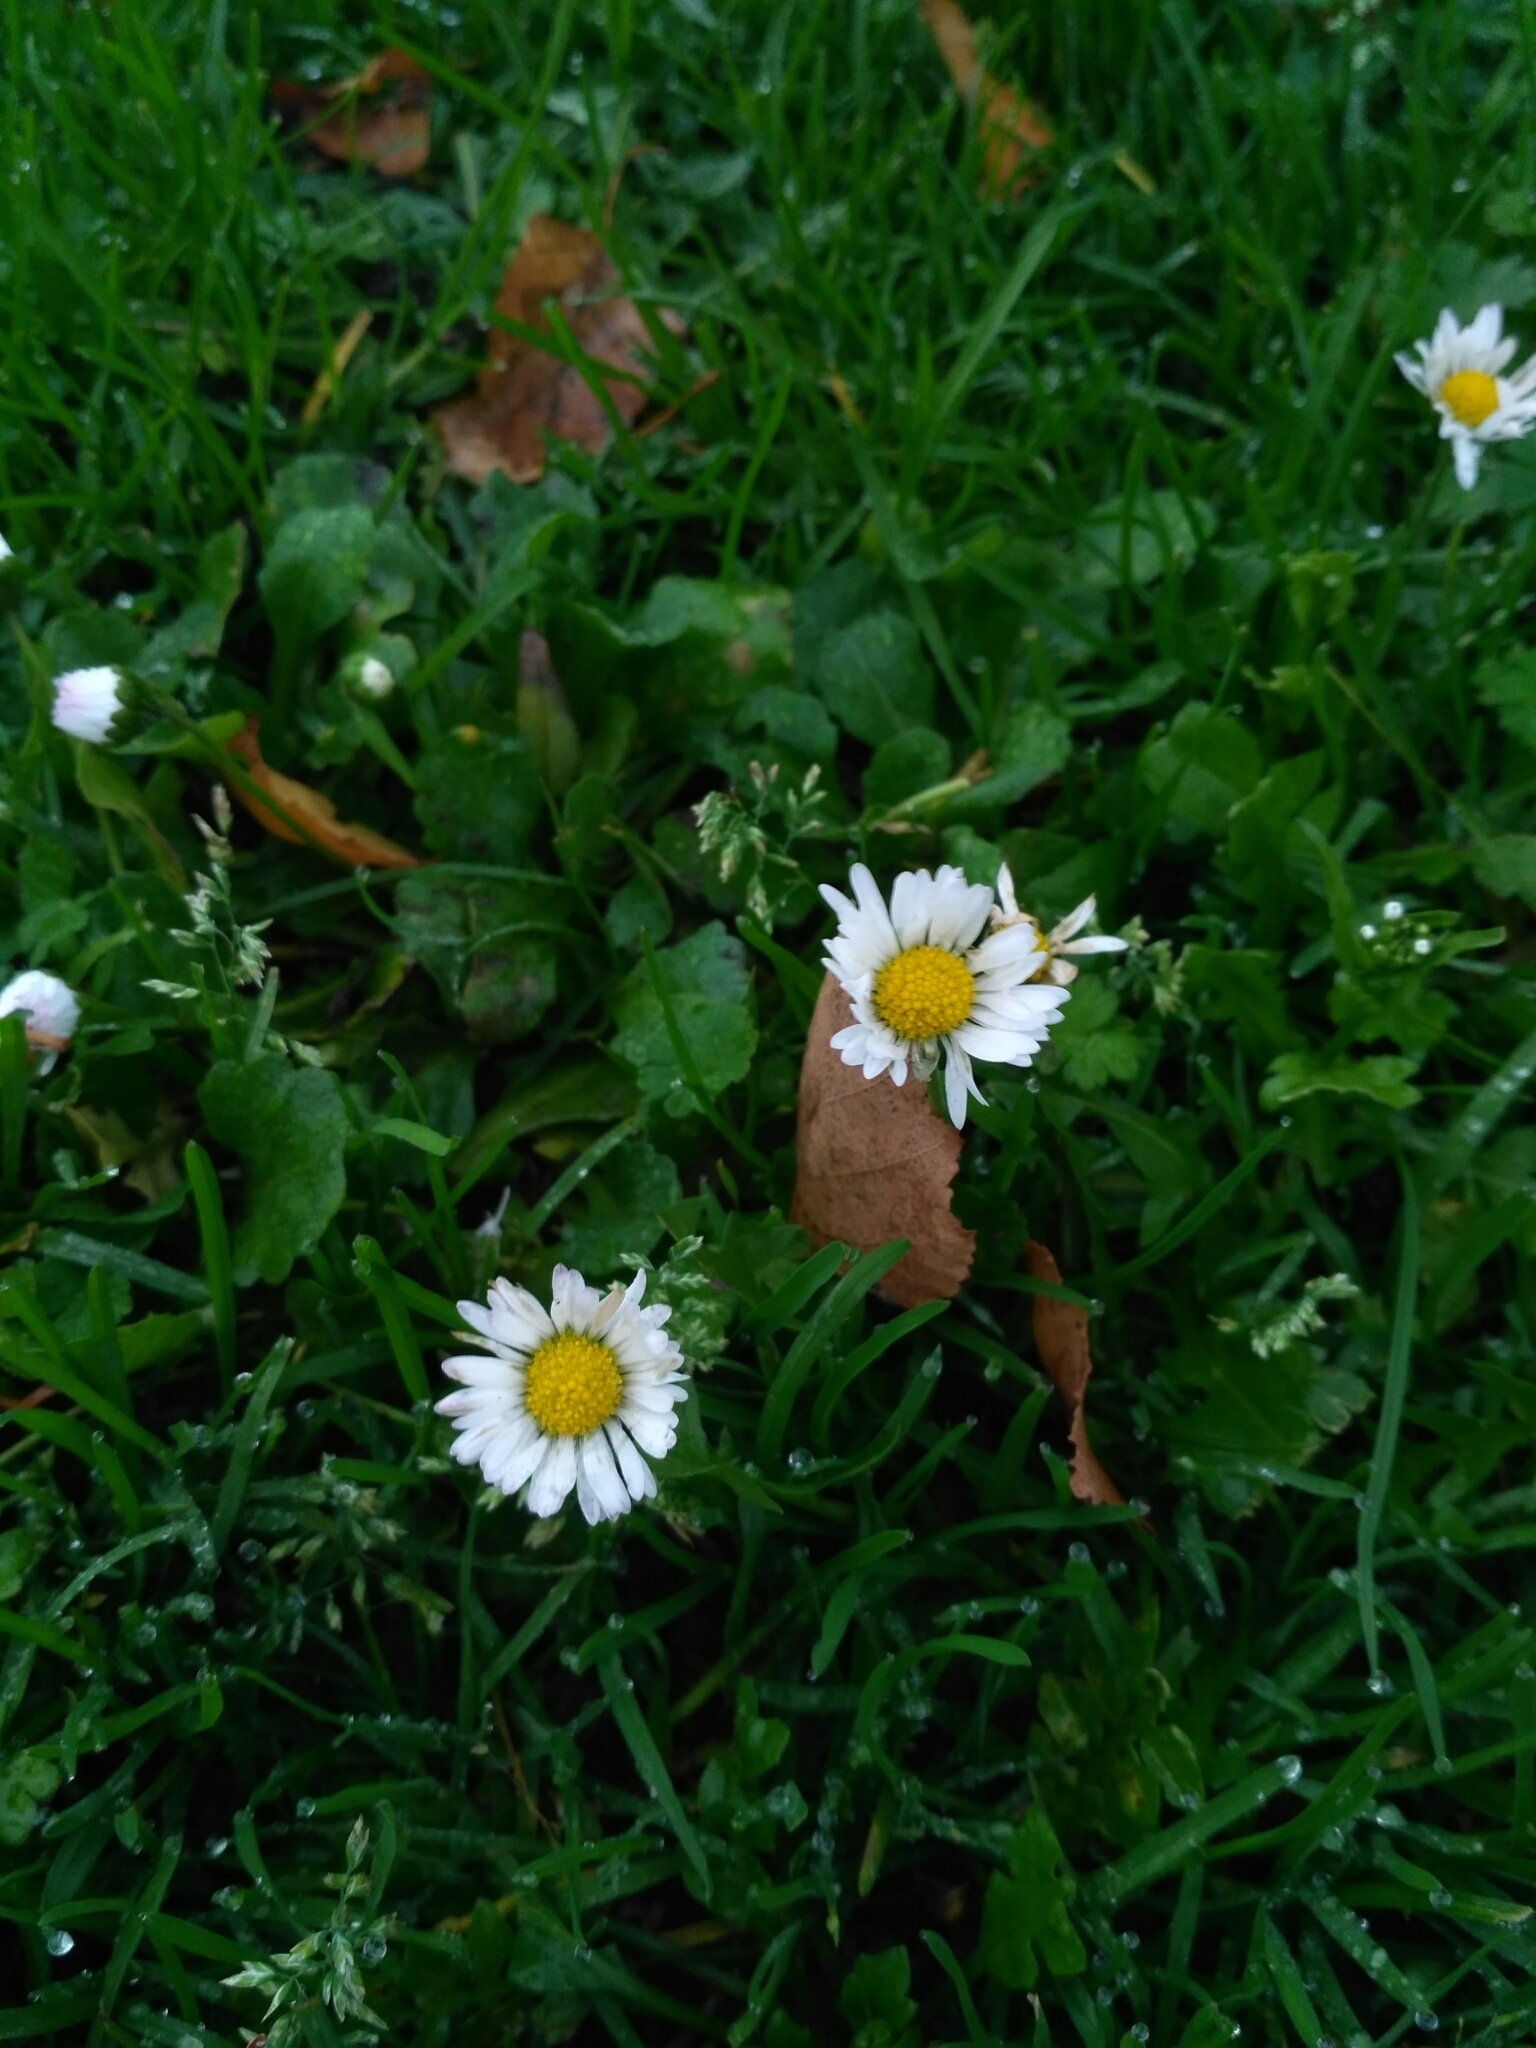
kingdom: Plantae
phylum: Tracheophyta
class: Magnoliopsida
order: Asterales
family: Asteraceae
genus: Bellis
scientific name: Bellis perennis
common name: Lawndaisy
